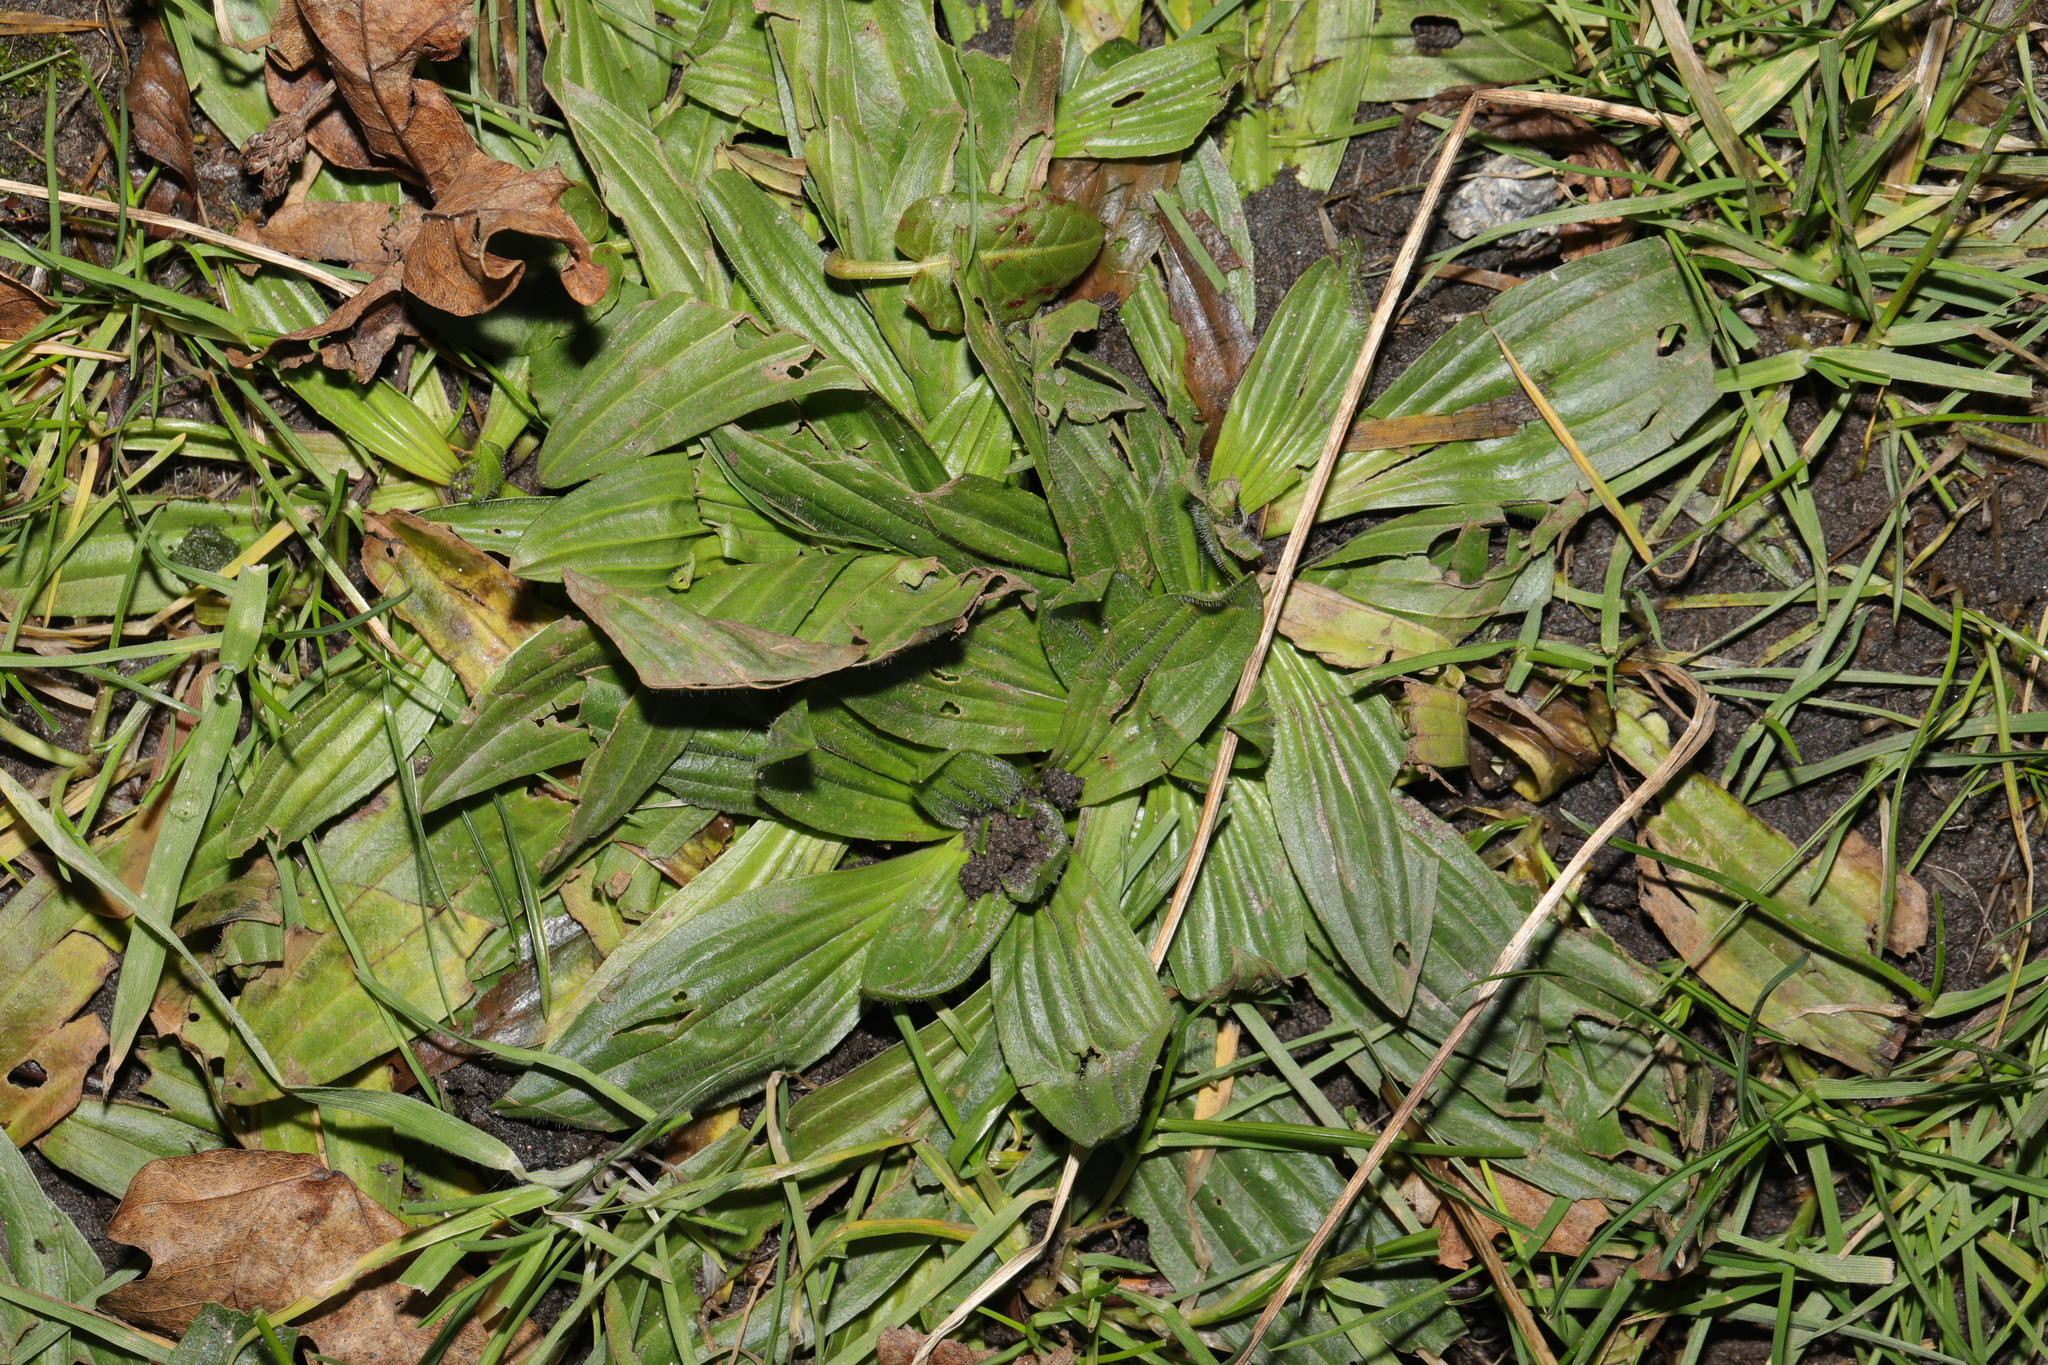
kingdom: Plantae
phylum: Tracheophyta
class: Magnoliopsida
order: Lamiales
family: Plantaginaceae
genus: Plantago
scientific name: Plantago lanceolata
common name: Ribwort plantain
